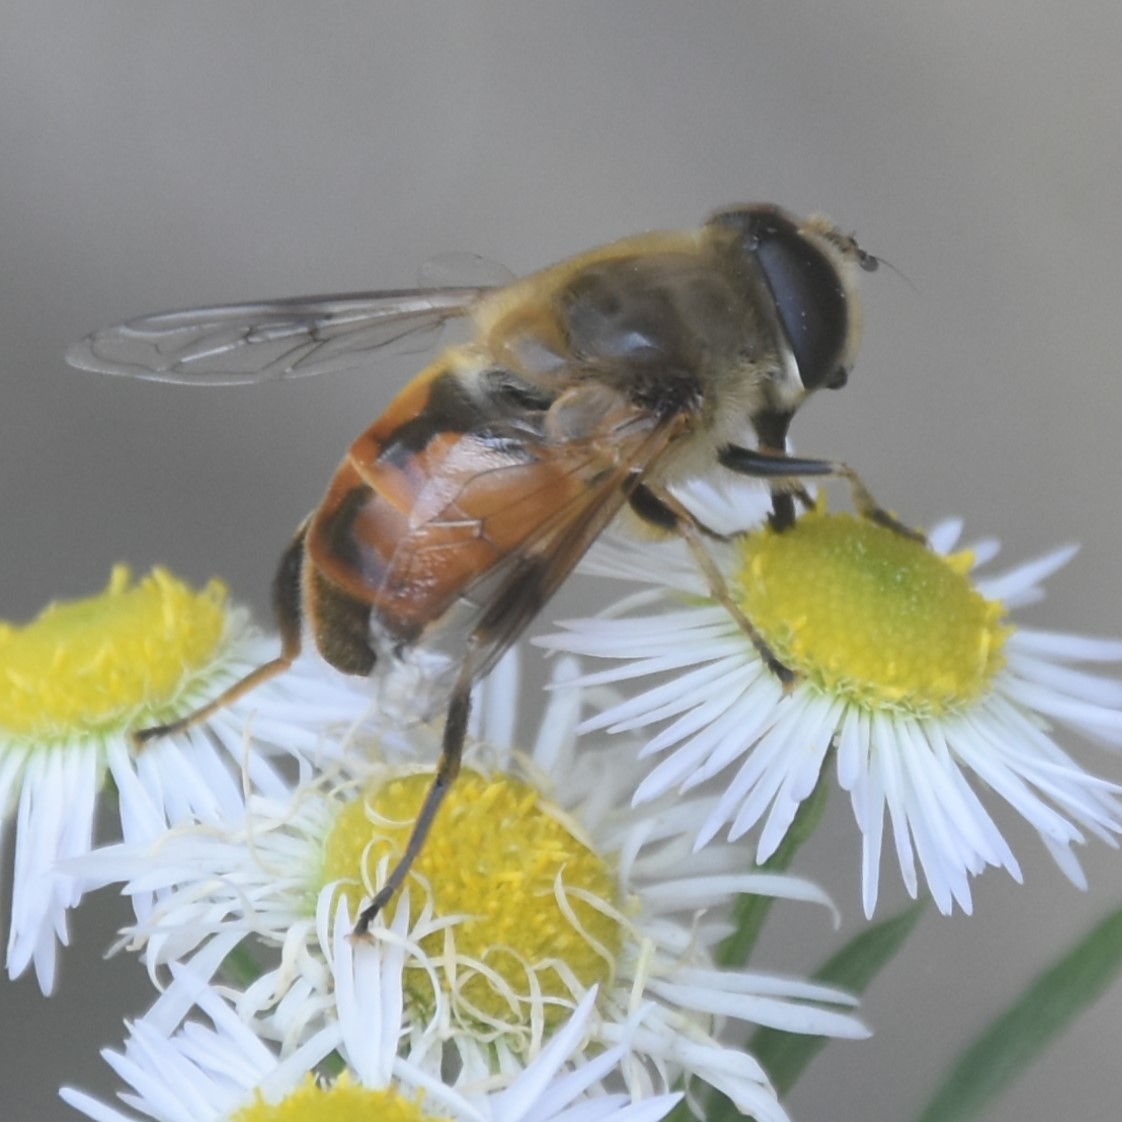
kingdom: Animalia
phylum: Arthropoda
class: Insecta
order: Diptera
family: Syrphidae
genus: Eristalis
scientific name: Eristalis tenax
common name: Drone fly
